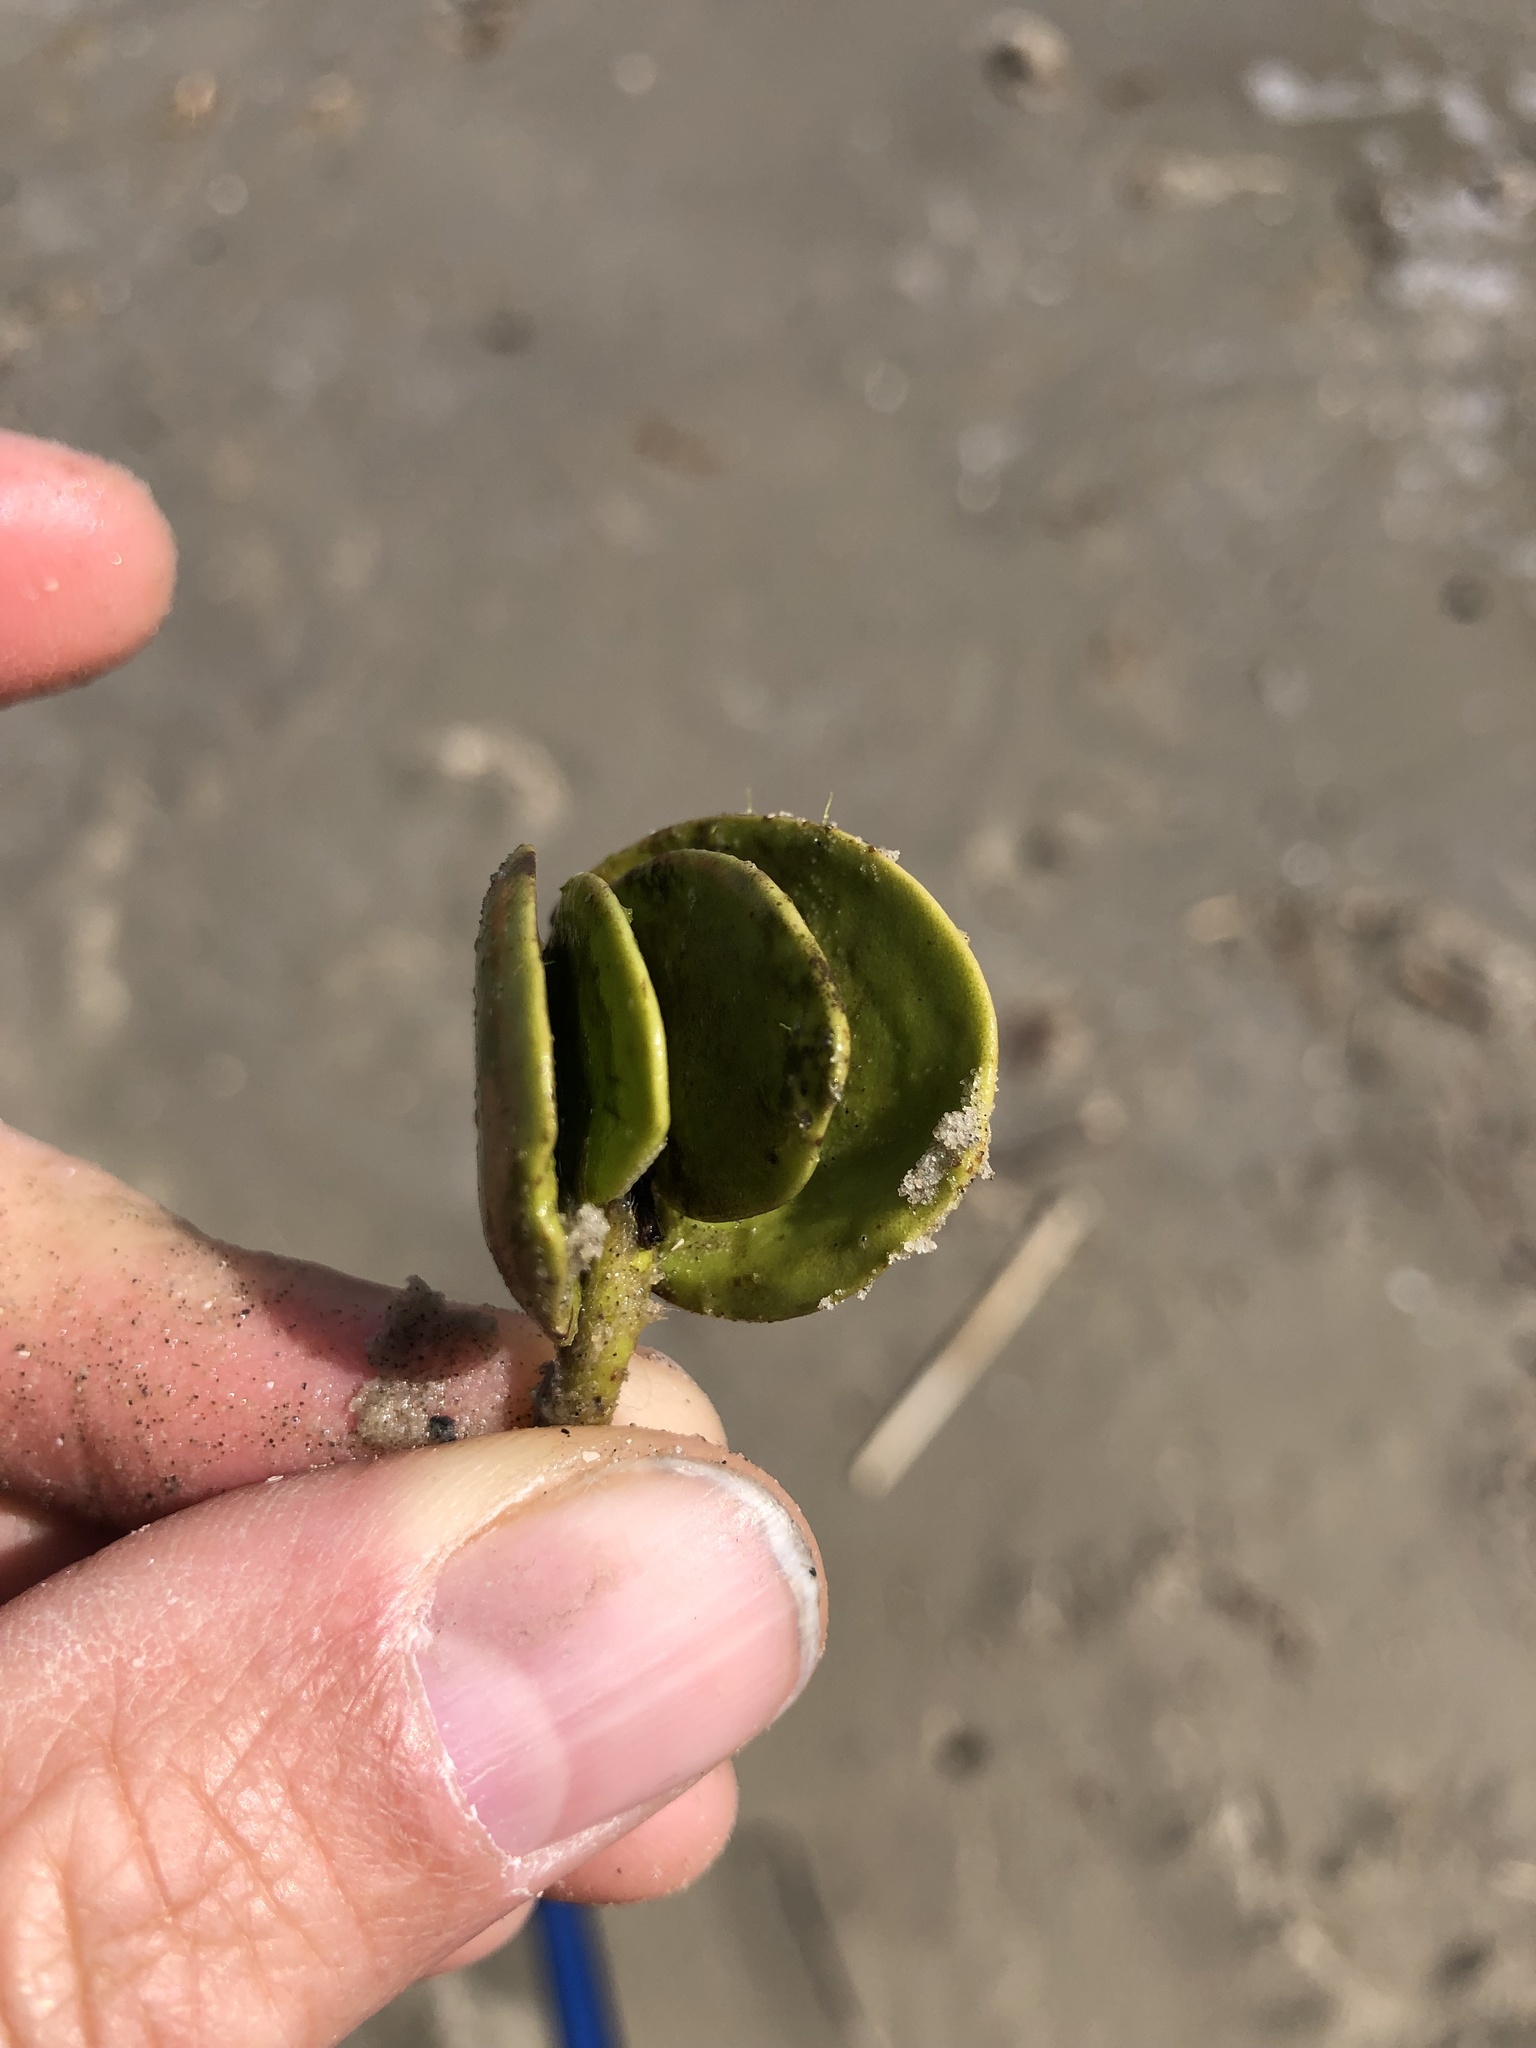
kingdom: Plantae
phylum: Tracheophyta
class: Magnoliopsida
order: Lamiales
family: Acanthaceae
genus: Avicennia
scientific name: Avicennia germinans
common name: Black mangrove
